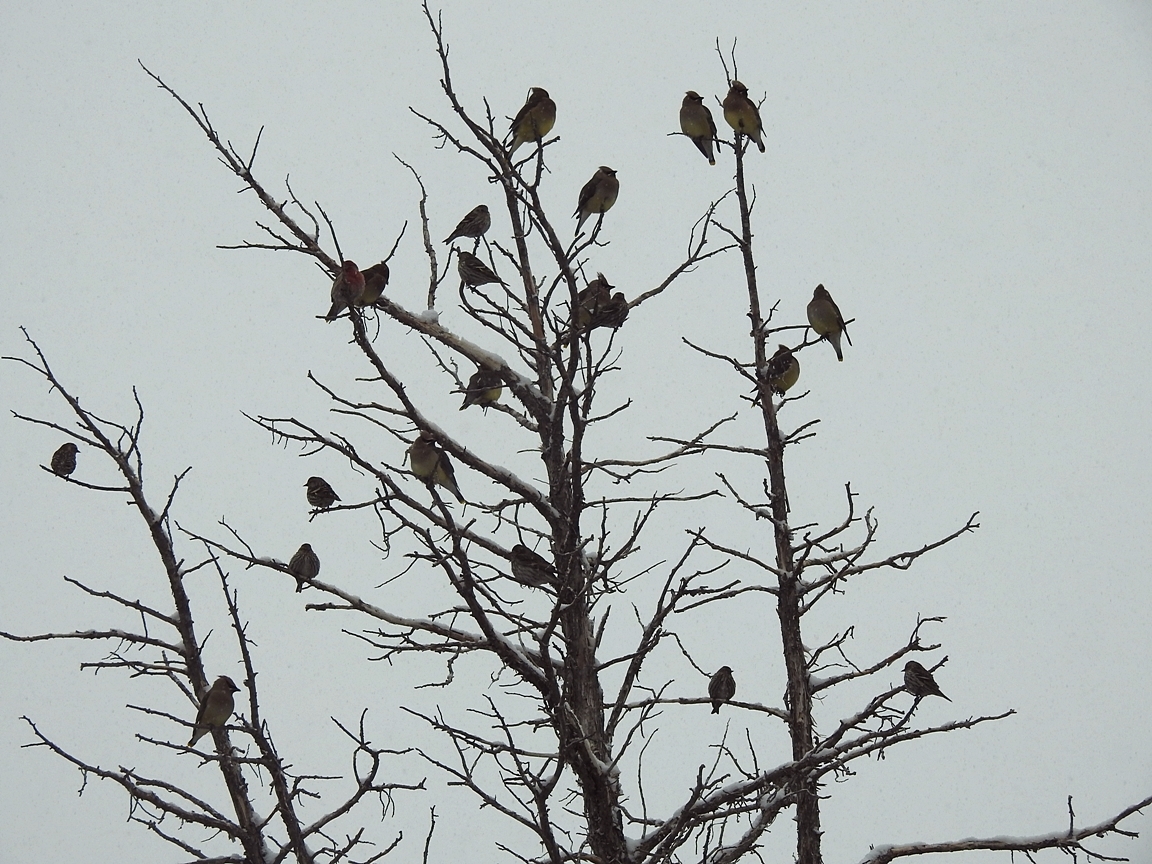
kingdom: Animalia
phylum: Chordata
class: Aves
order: Passeriformes
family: Bombycillidae
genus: Bombycilla
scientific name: Bombycilla cedrorum
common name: Cedar waxwing
